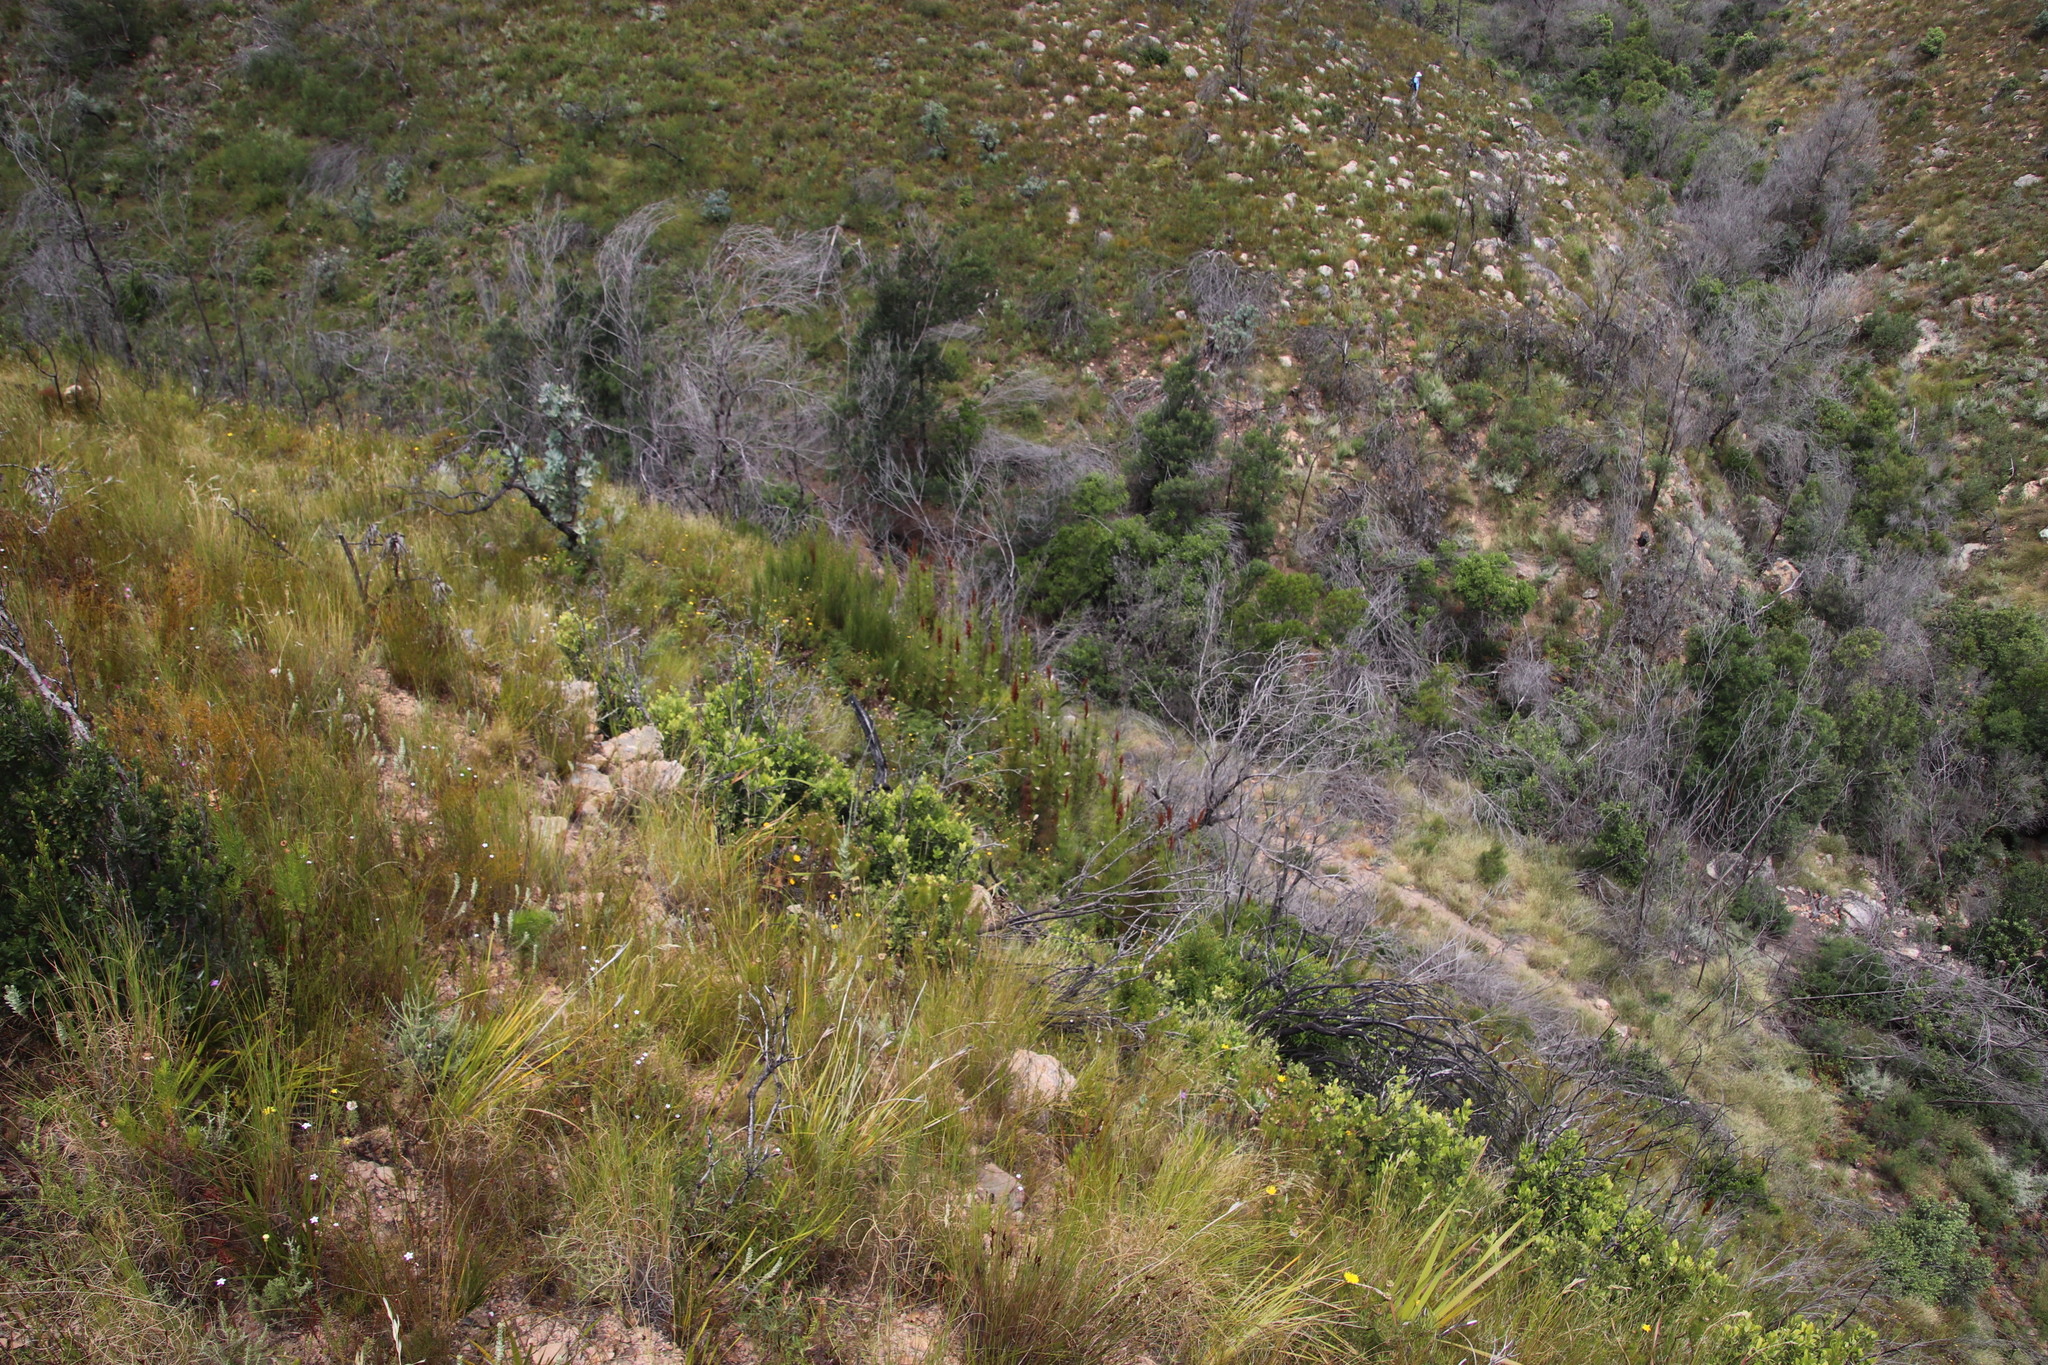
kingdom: Plantae
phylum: Tracheophyta
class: Liliopsida
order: Poales
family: Restionaceae
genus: Elegia
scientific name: Elegia capensis
